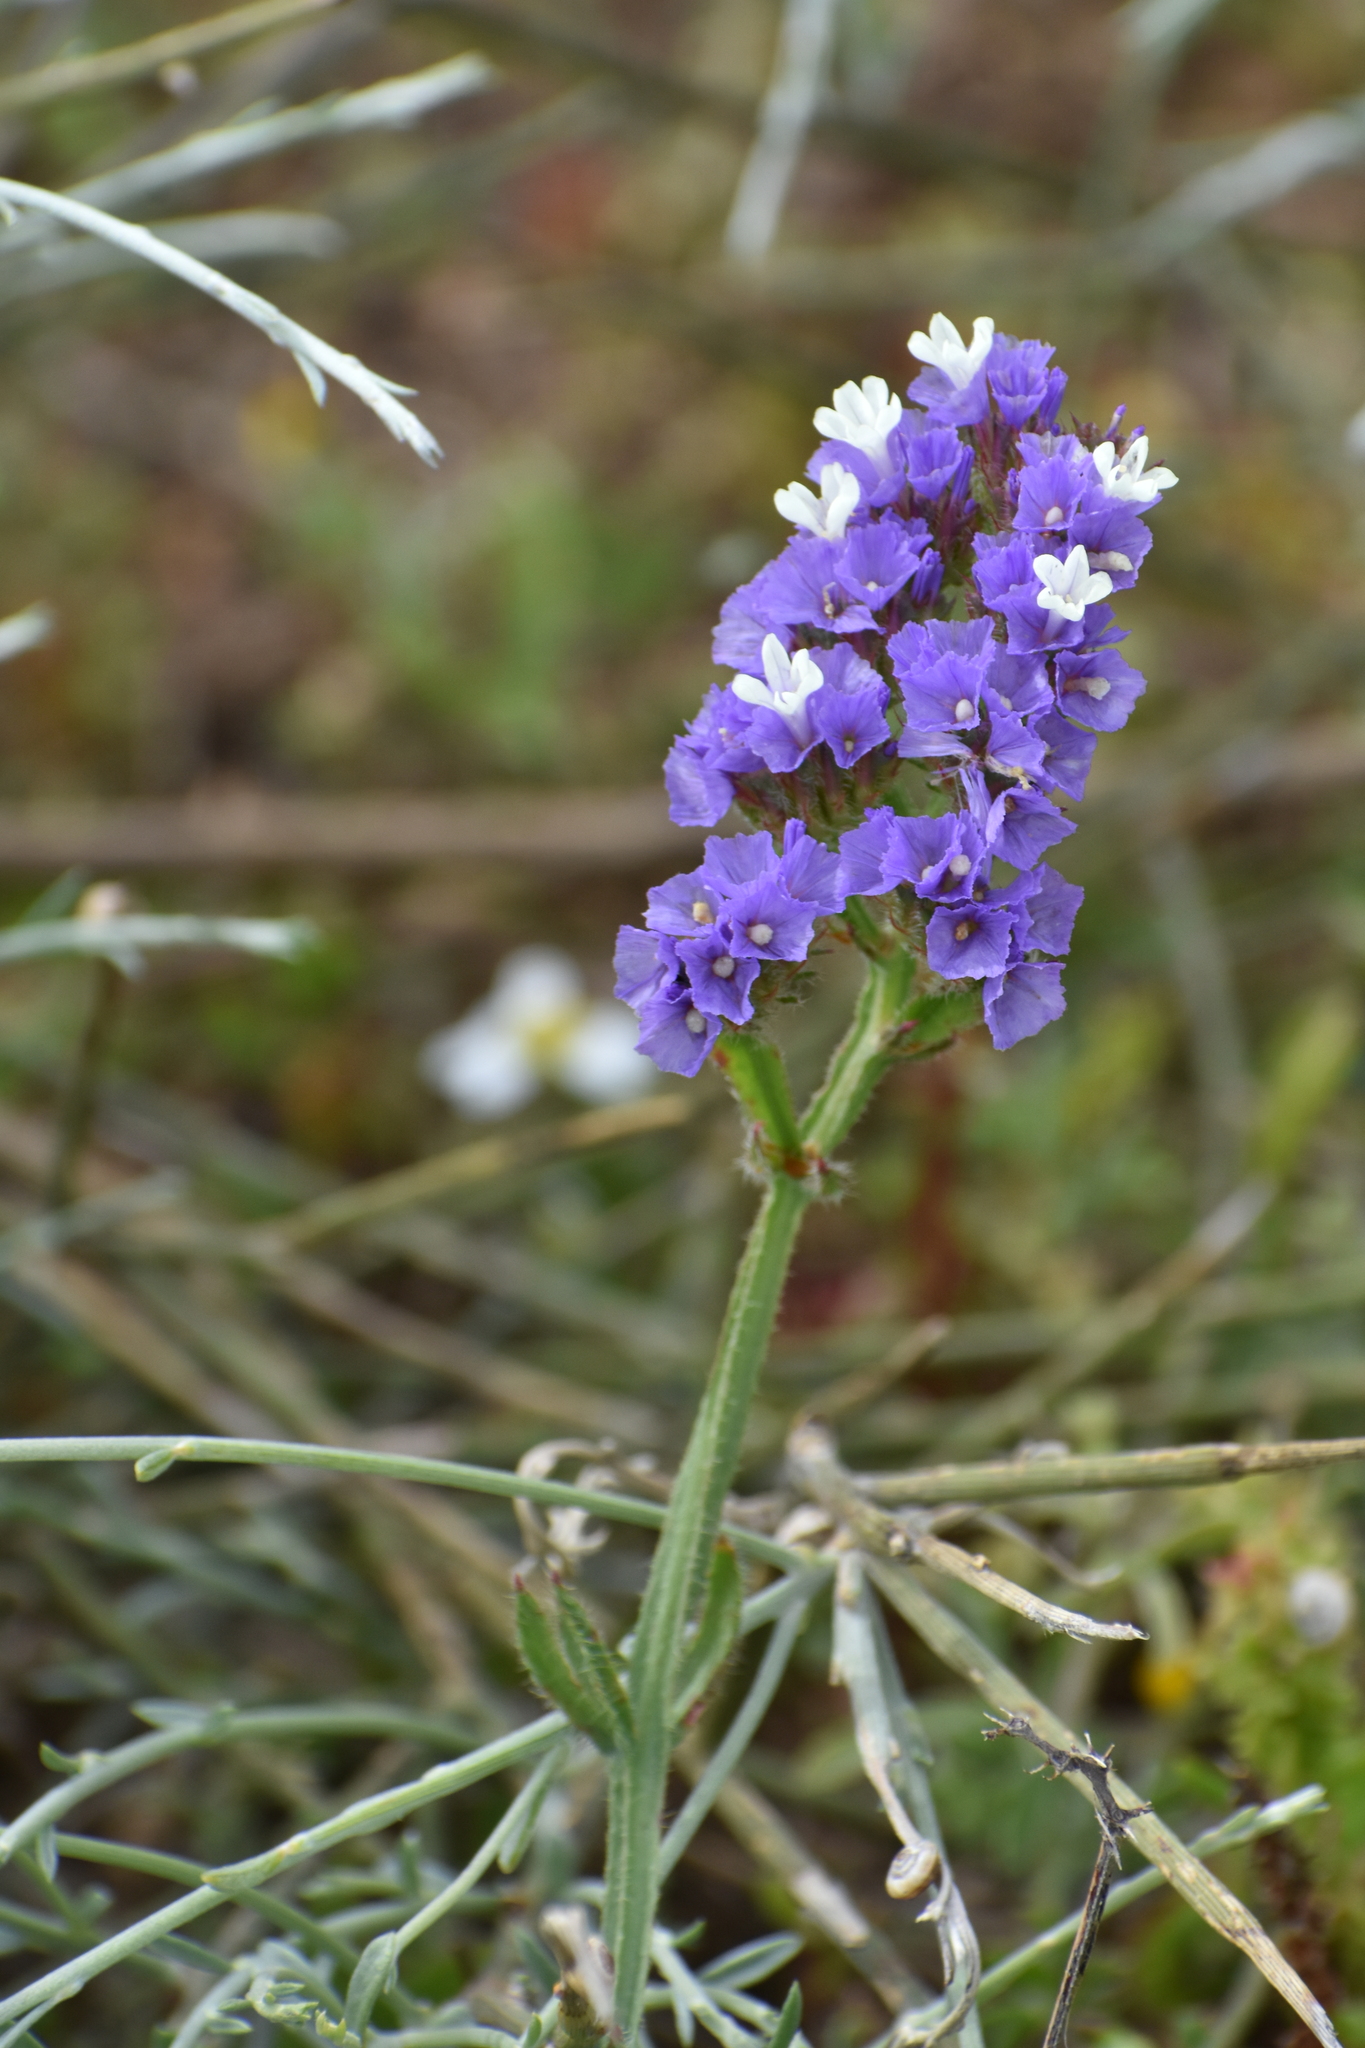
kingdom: Plantae
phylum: Tracheophyta
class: Magnoliopsida
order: Caryophyllales
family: Plumbaginaceae
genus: Limonium
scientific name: Limonium sinuatum
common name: Statice
